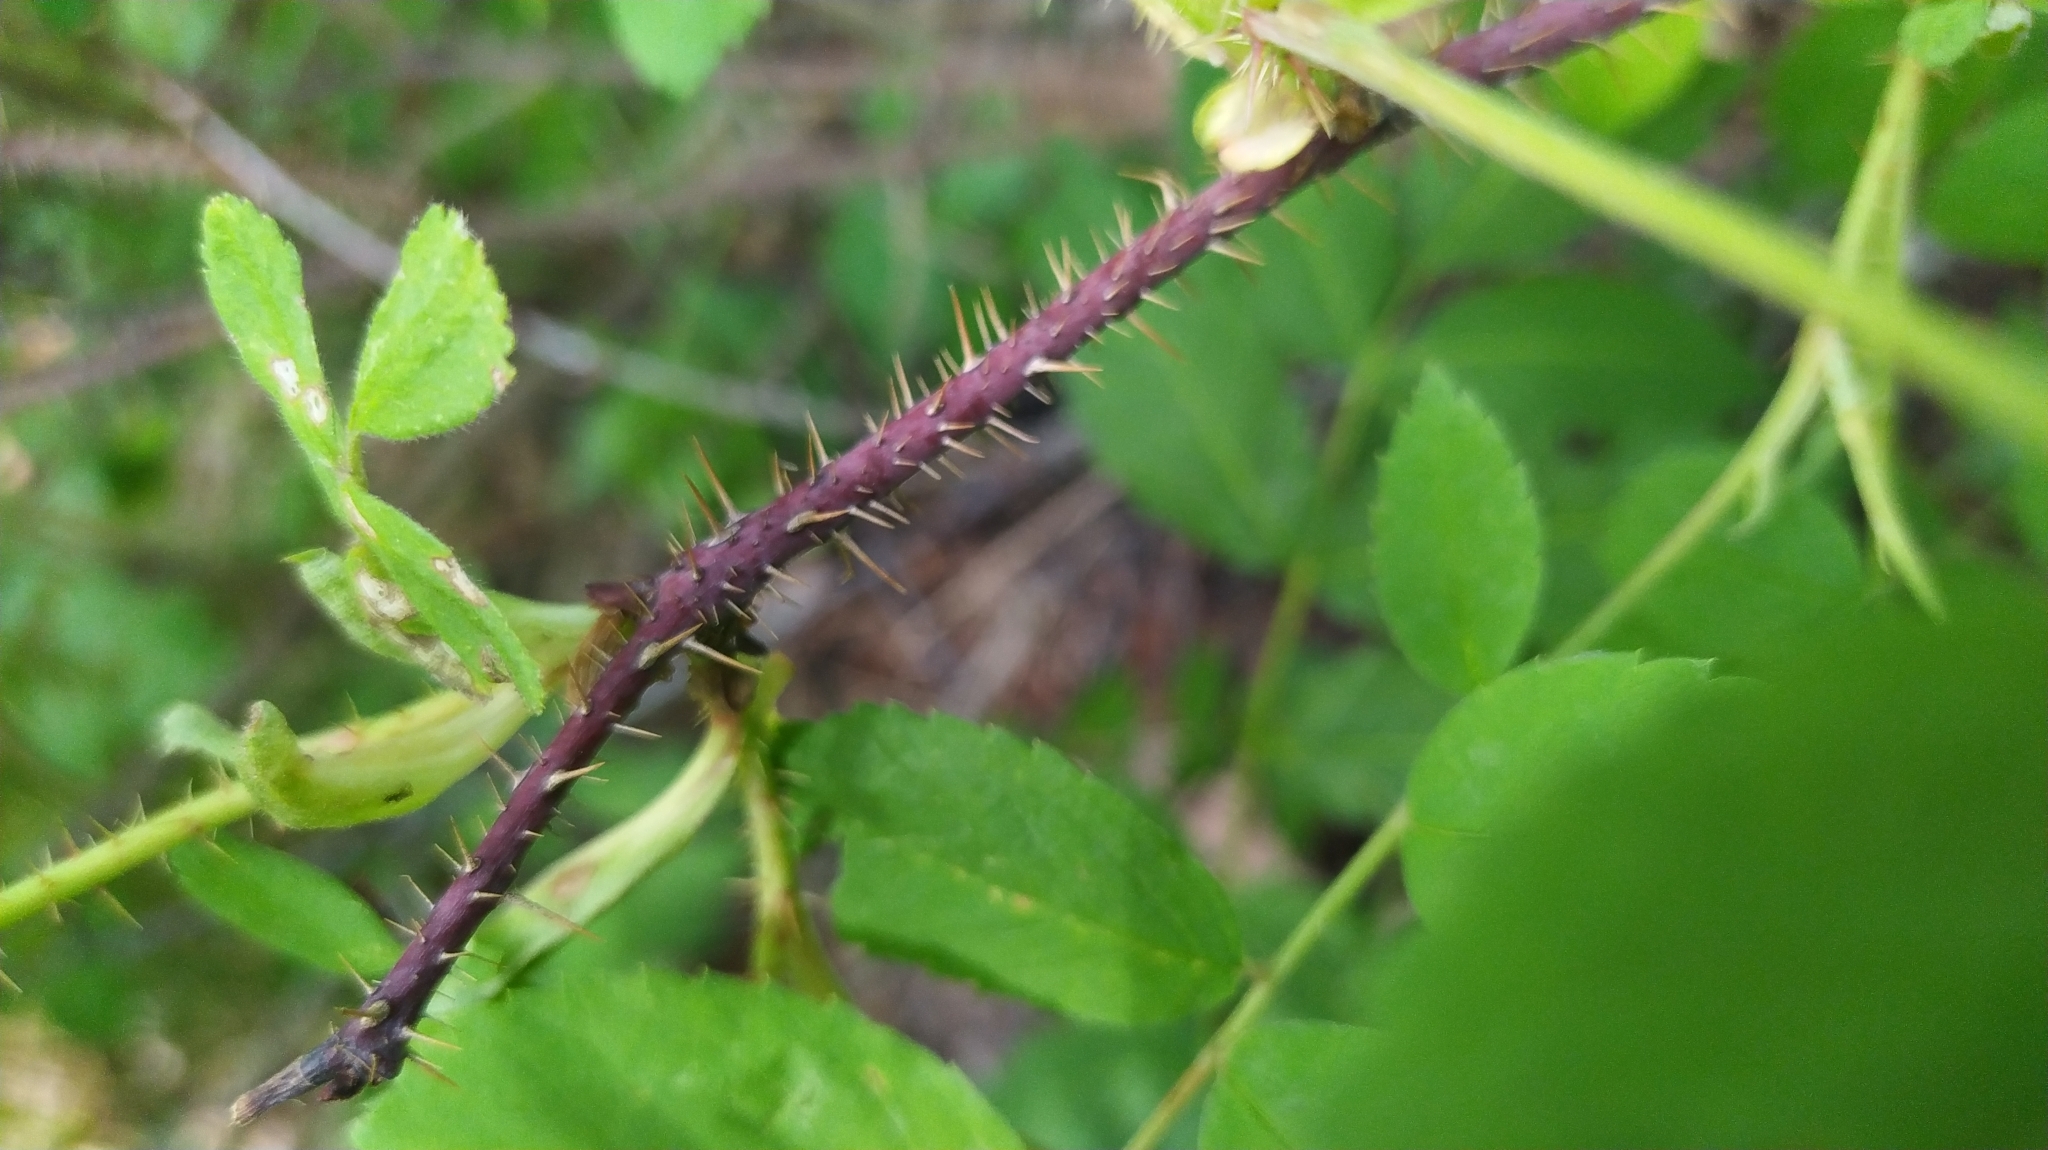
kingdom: Plantae
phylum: Tracheophyta
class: Magnoliopsida
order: Rosales
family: Rosaceae
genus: Rosa
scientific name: Rosa acicularis
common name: Prickly rose
